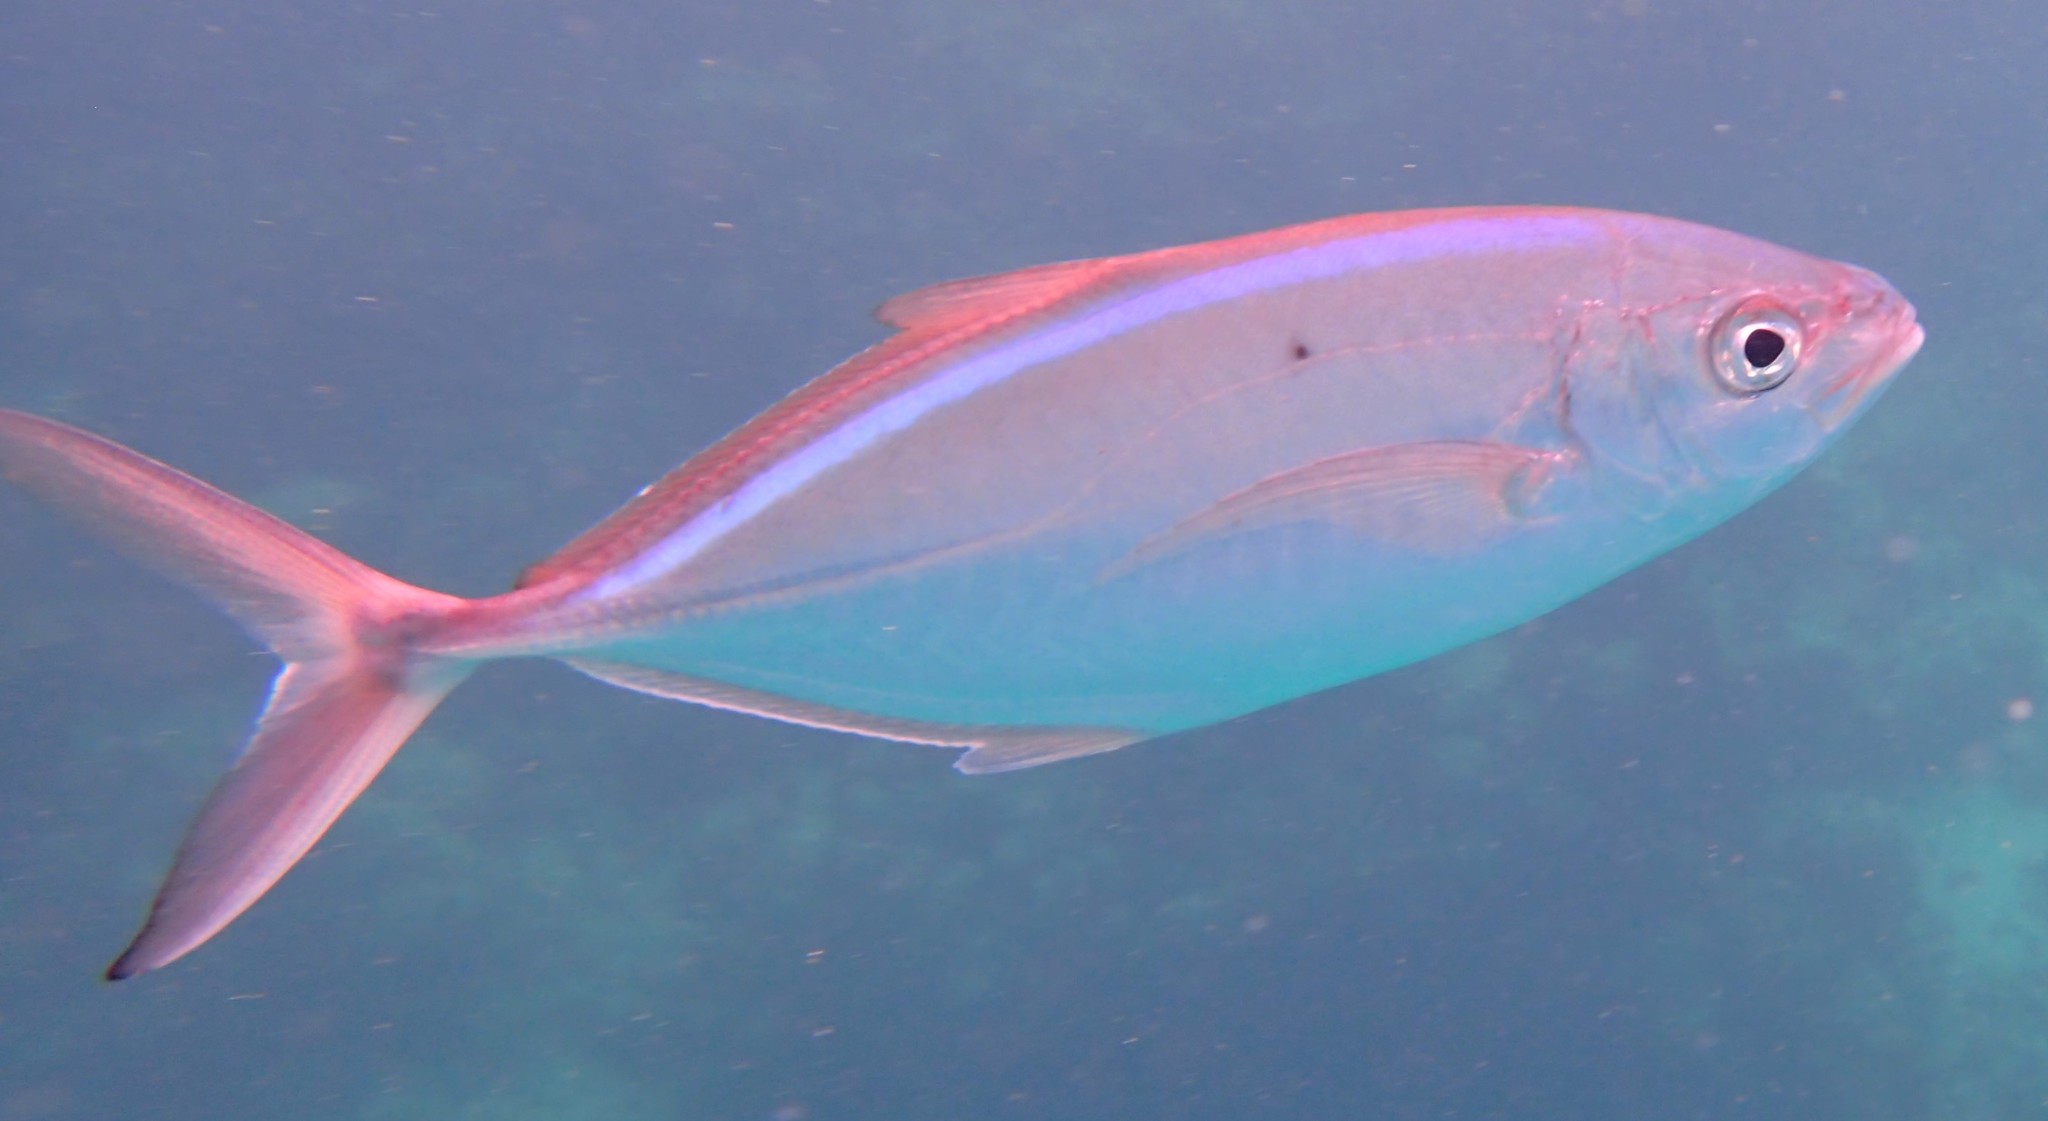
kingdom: Animalia
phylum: Chordata
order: Perciformes
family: Carangidae
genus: Caranx
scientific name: Caranx ruber
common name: Bar jack
